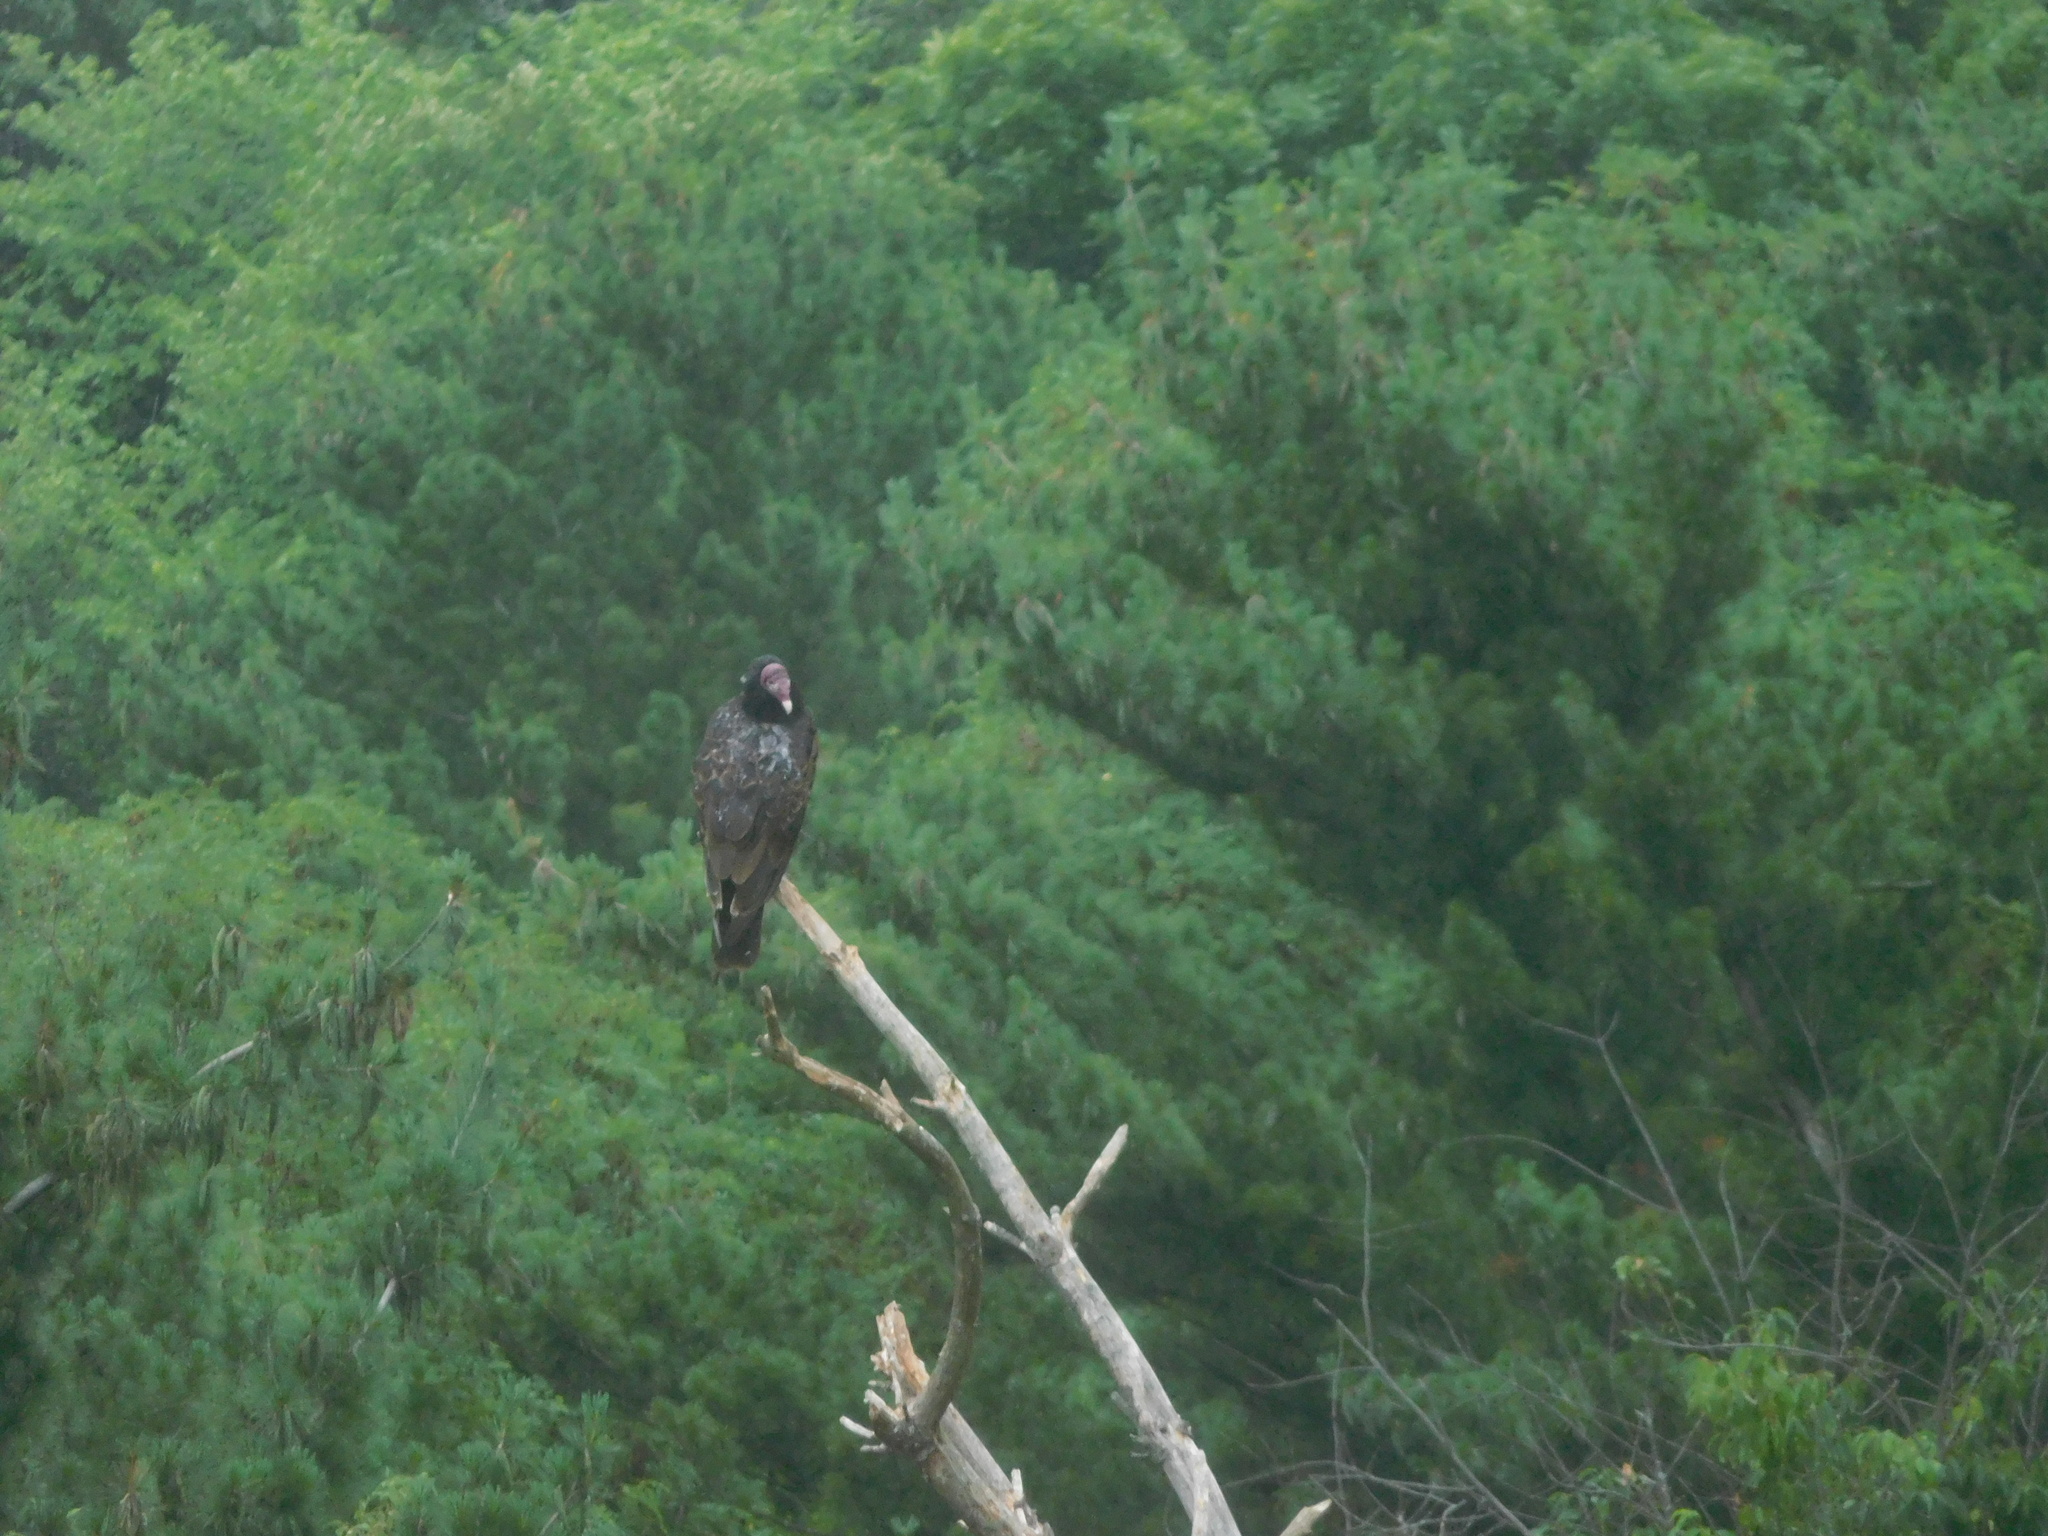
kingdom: Animalia
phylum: Chordata
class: Aves
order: Accipitriformes
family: Cathartidae
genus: Cathartes
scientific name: Cathartes aura
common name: Turkey vulture
